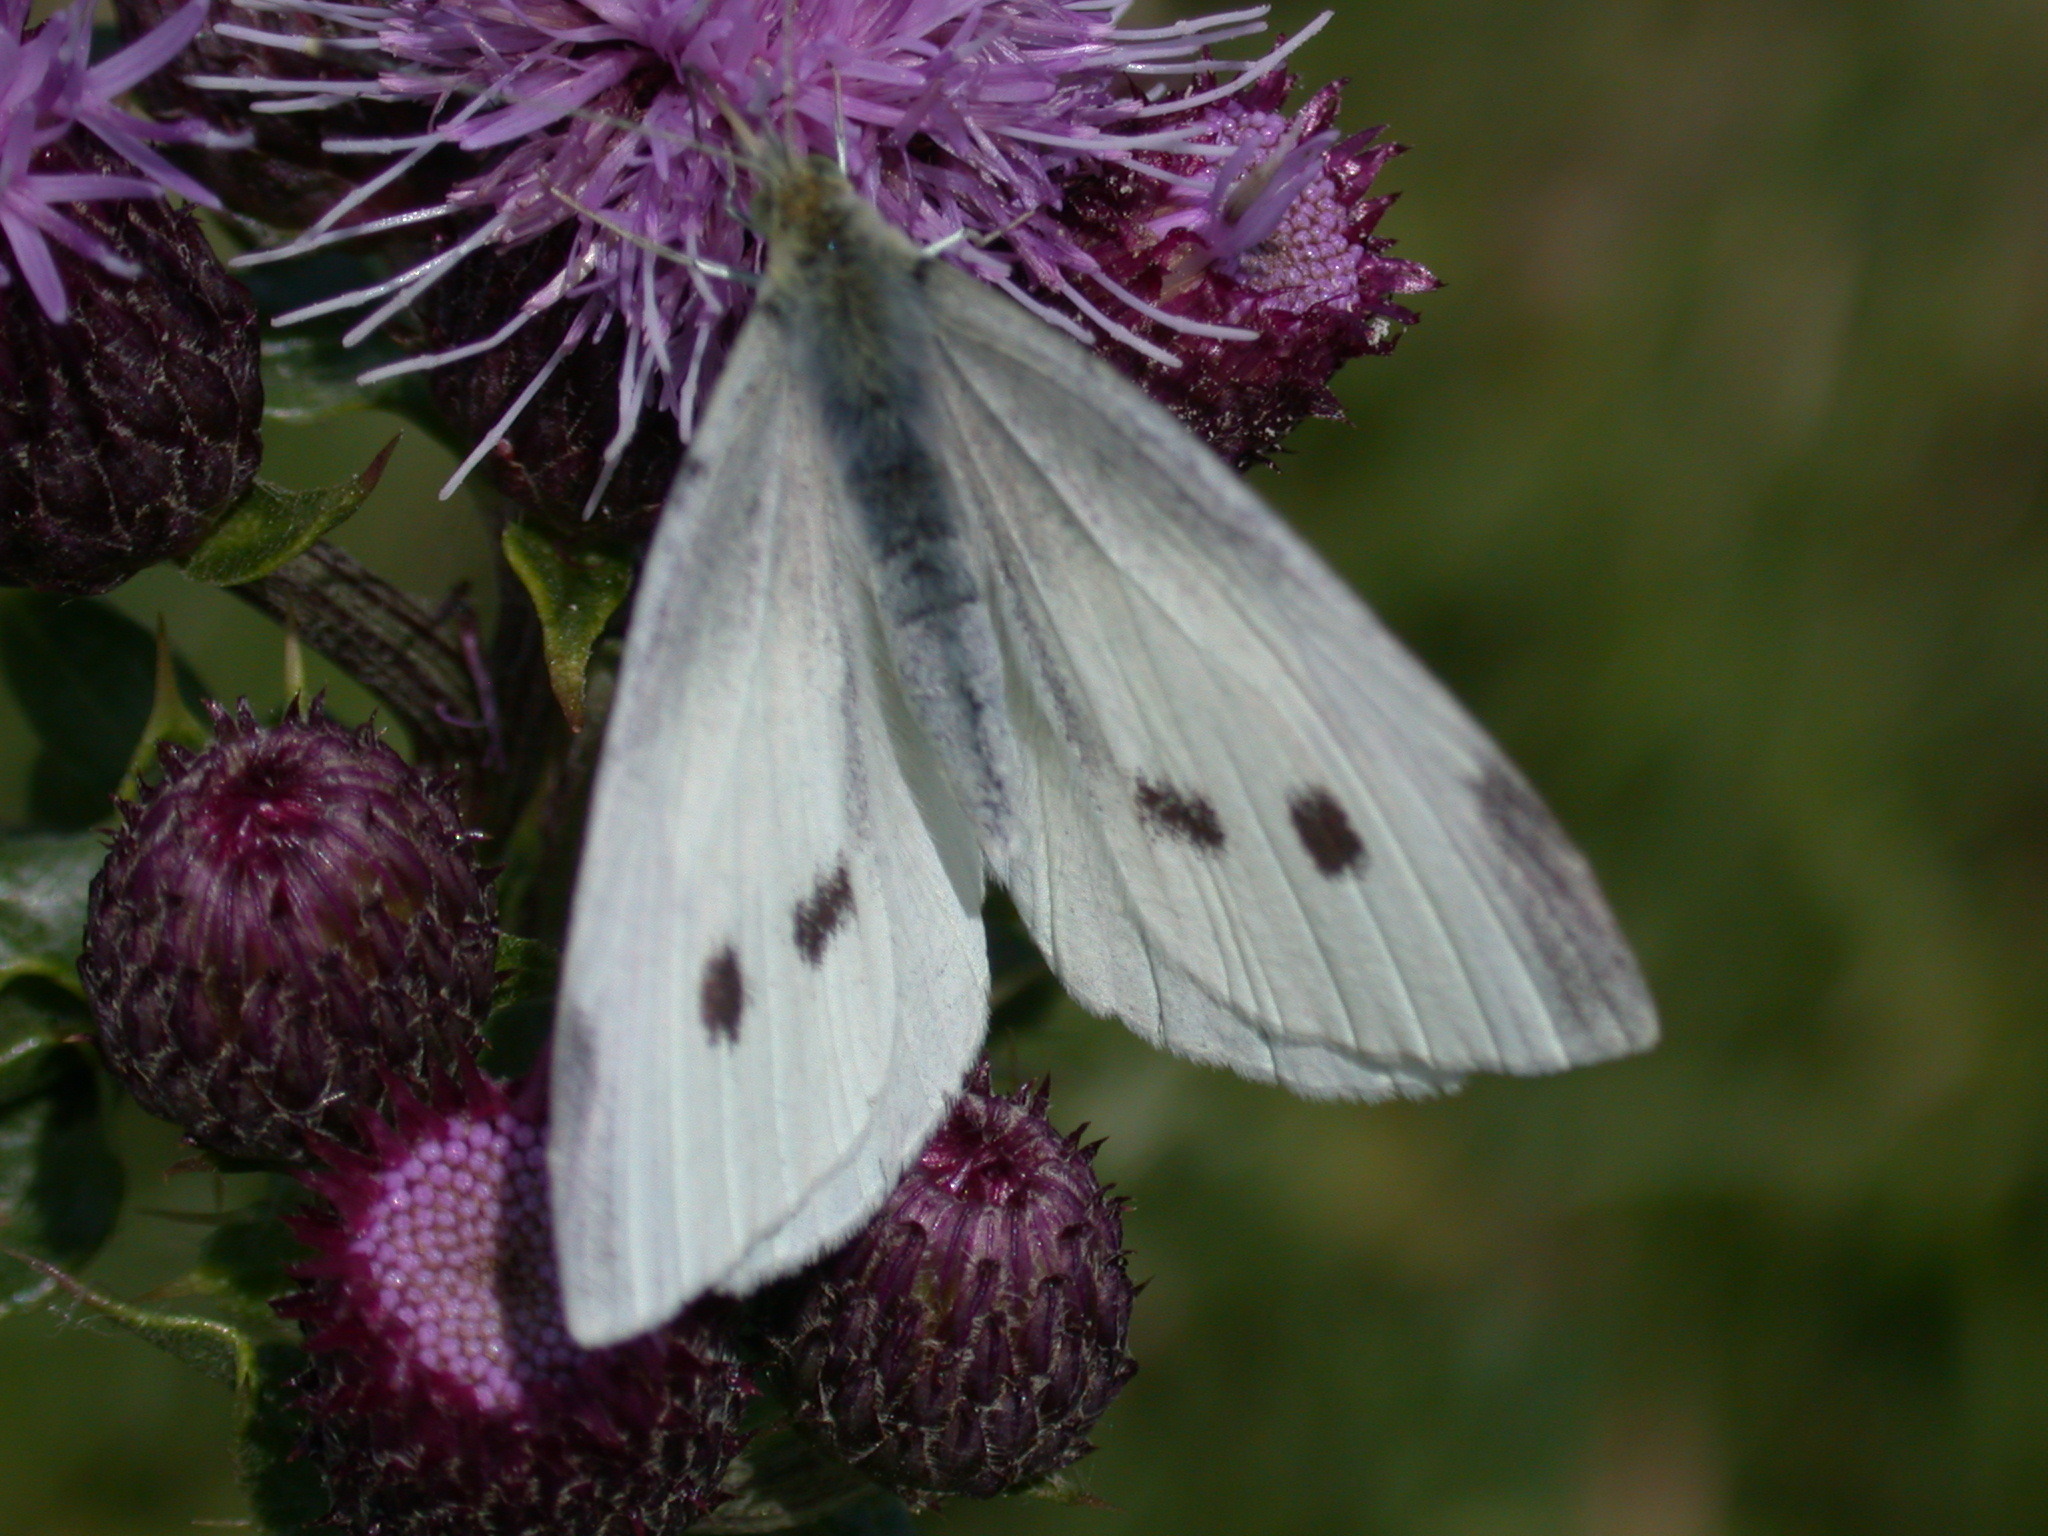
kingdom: Animalia
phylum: Arthropoda
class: Insecta
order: Lepidoptera
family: Pieridae
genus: Pieris
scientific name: Pieris rapae
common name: Small white
